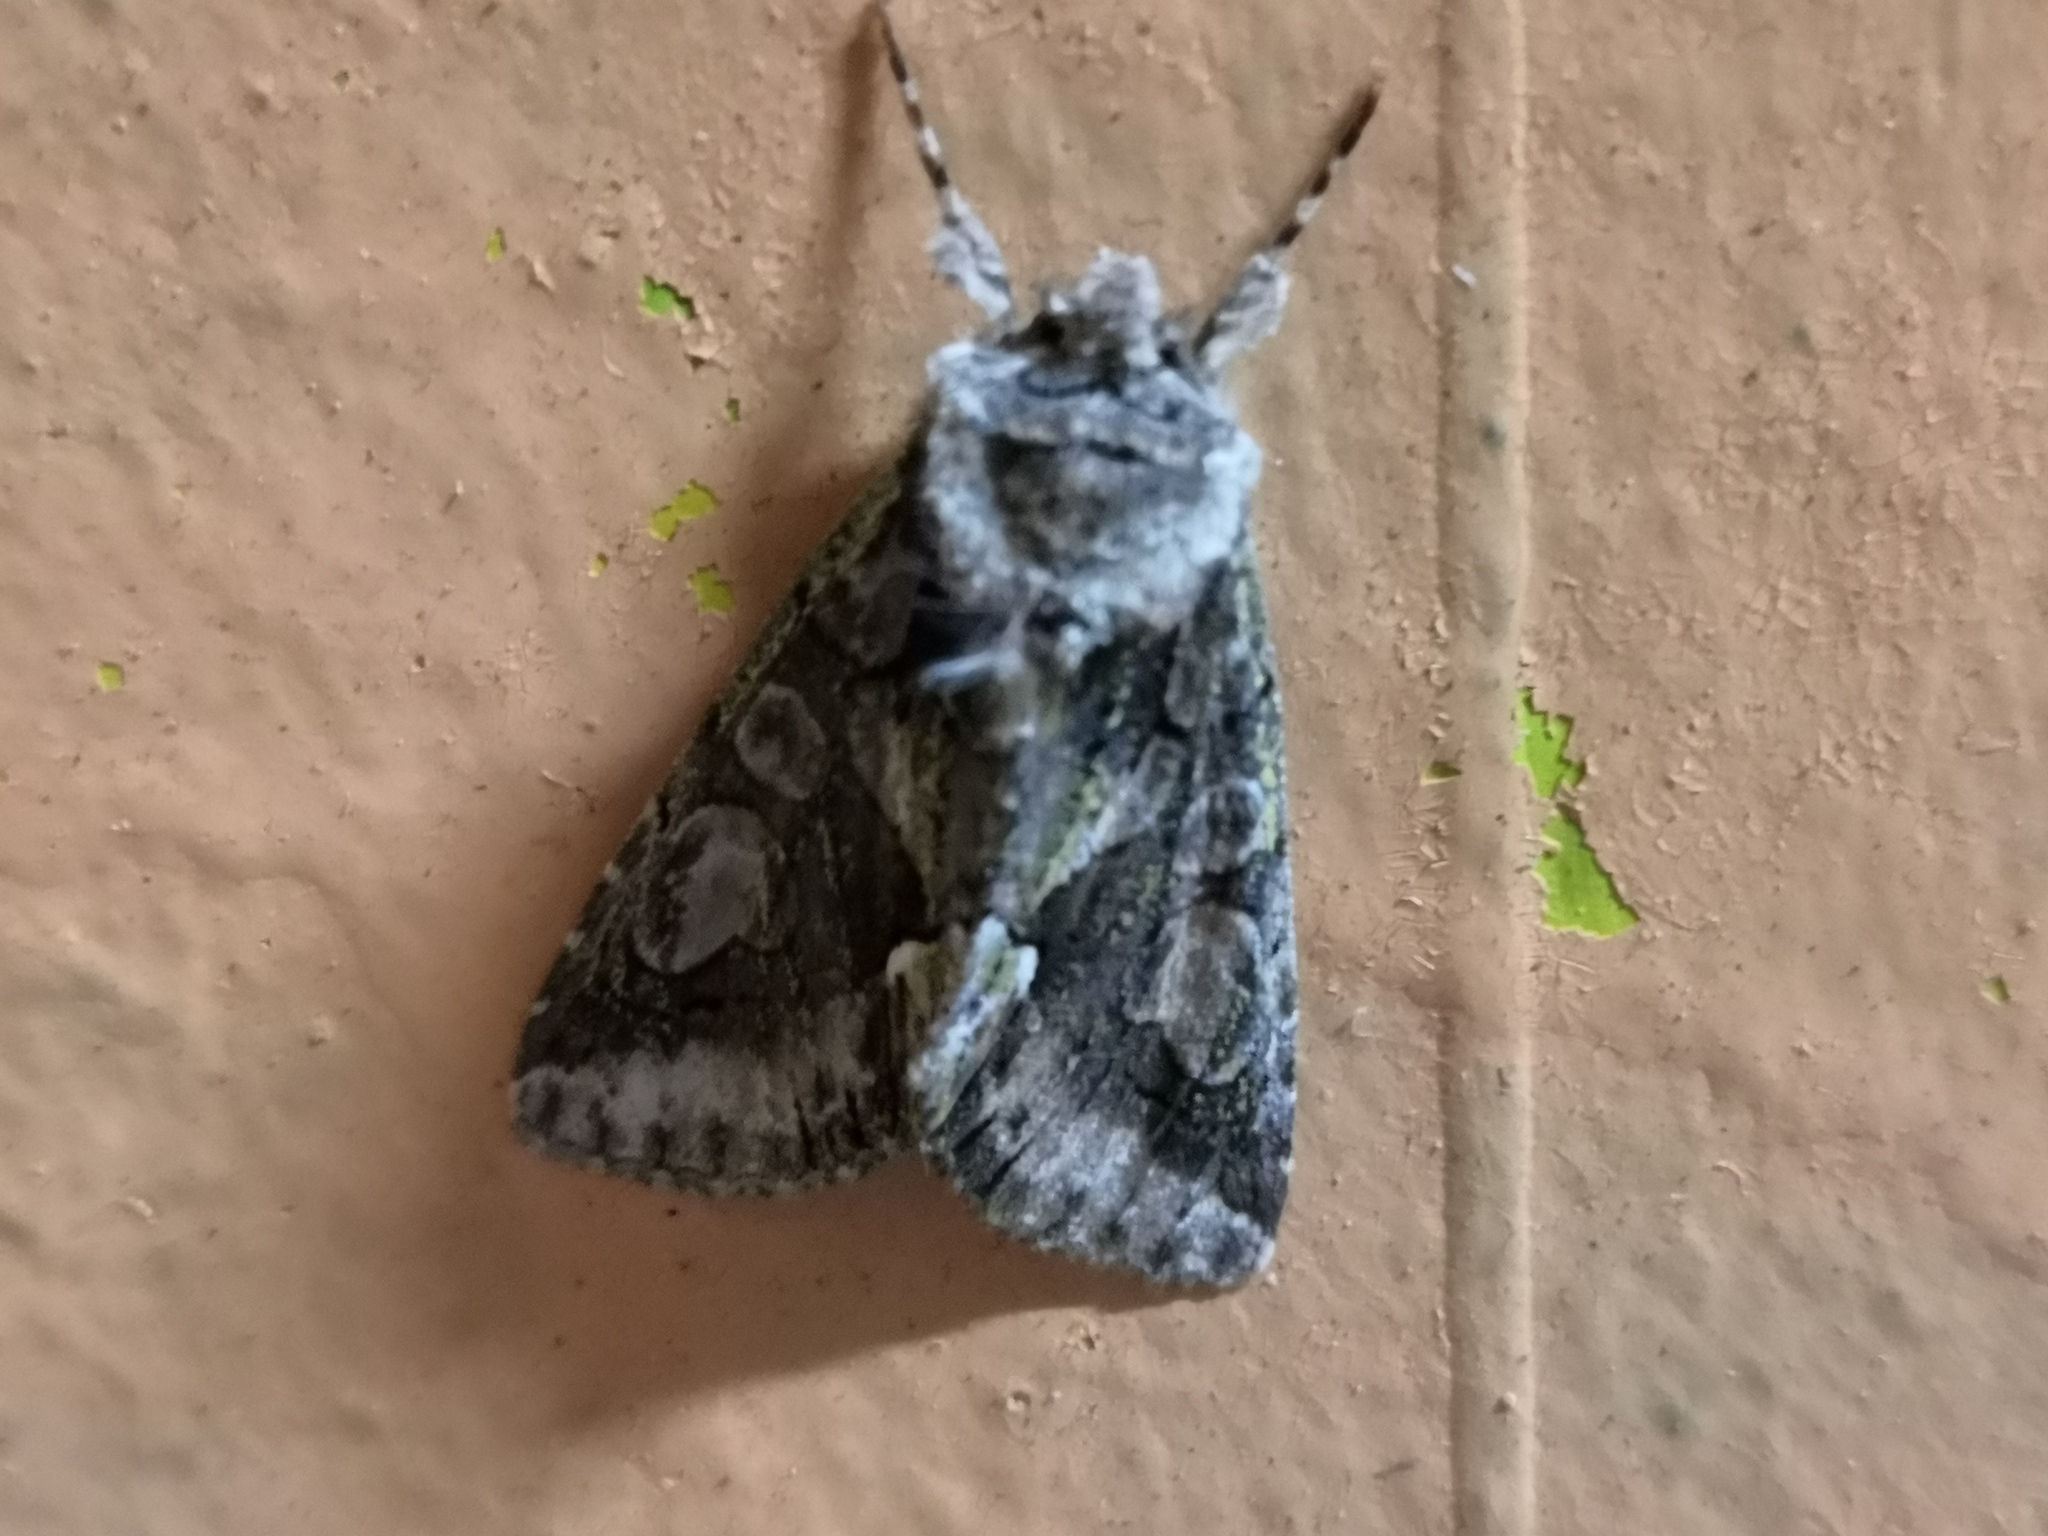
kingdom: Animalia
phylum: Arthropoda
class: Insecta
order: Lepidoptera
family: Noctuidae
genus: Allophyes
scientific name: Allophyes oxyacanthae
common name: Green-brindled crescent
